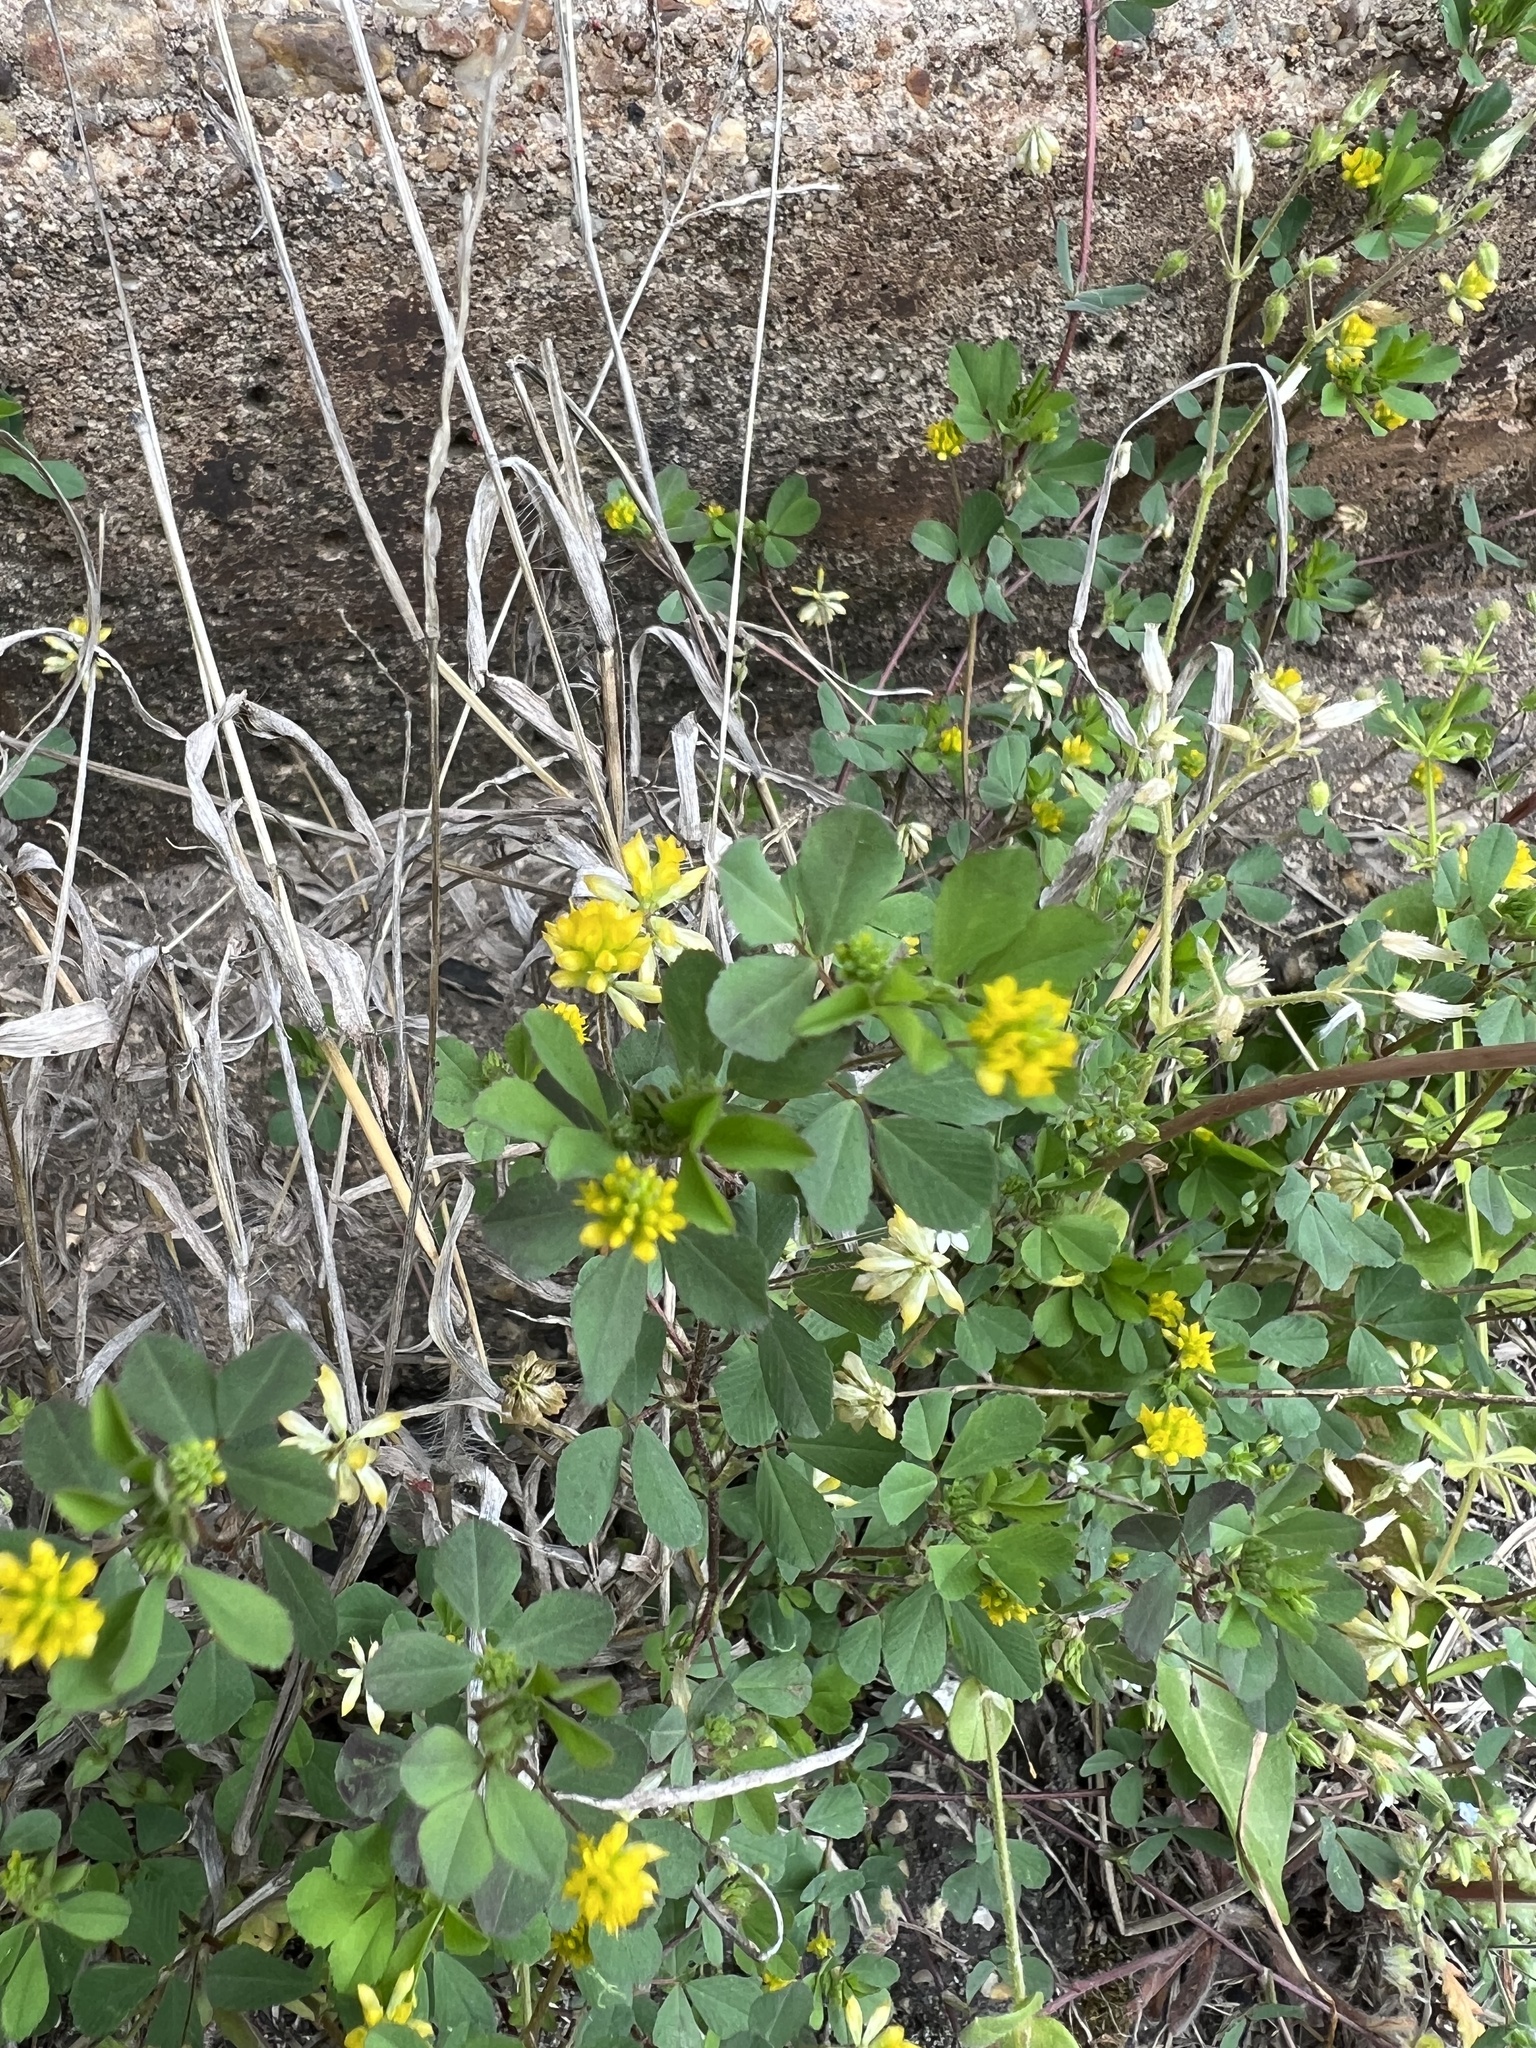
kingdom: Plantae
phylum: Tracheophyta
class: Magnoliopsida
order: Fabales
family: Fabaceae
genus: Trifolium
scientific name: Trifolium dubium
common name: Suckling clover
